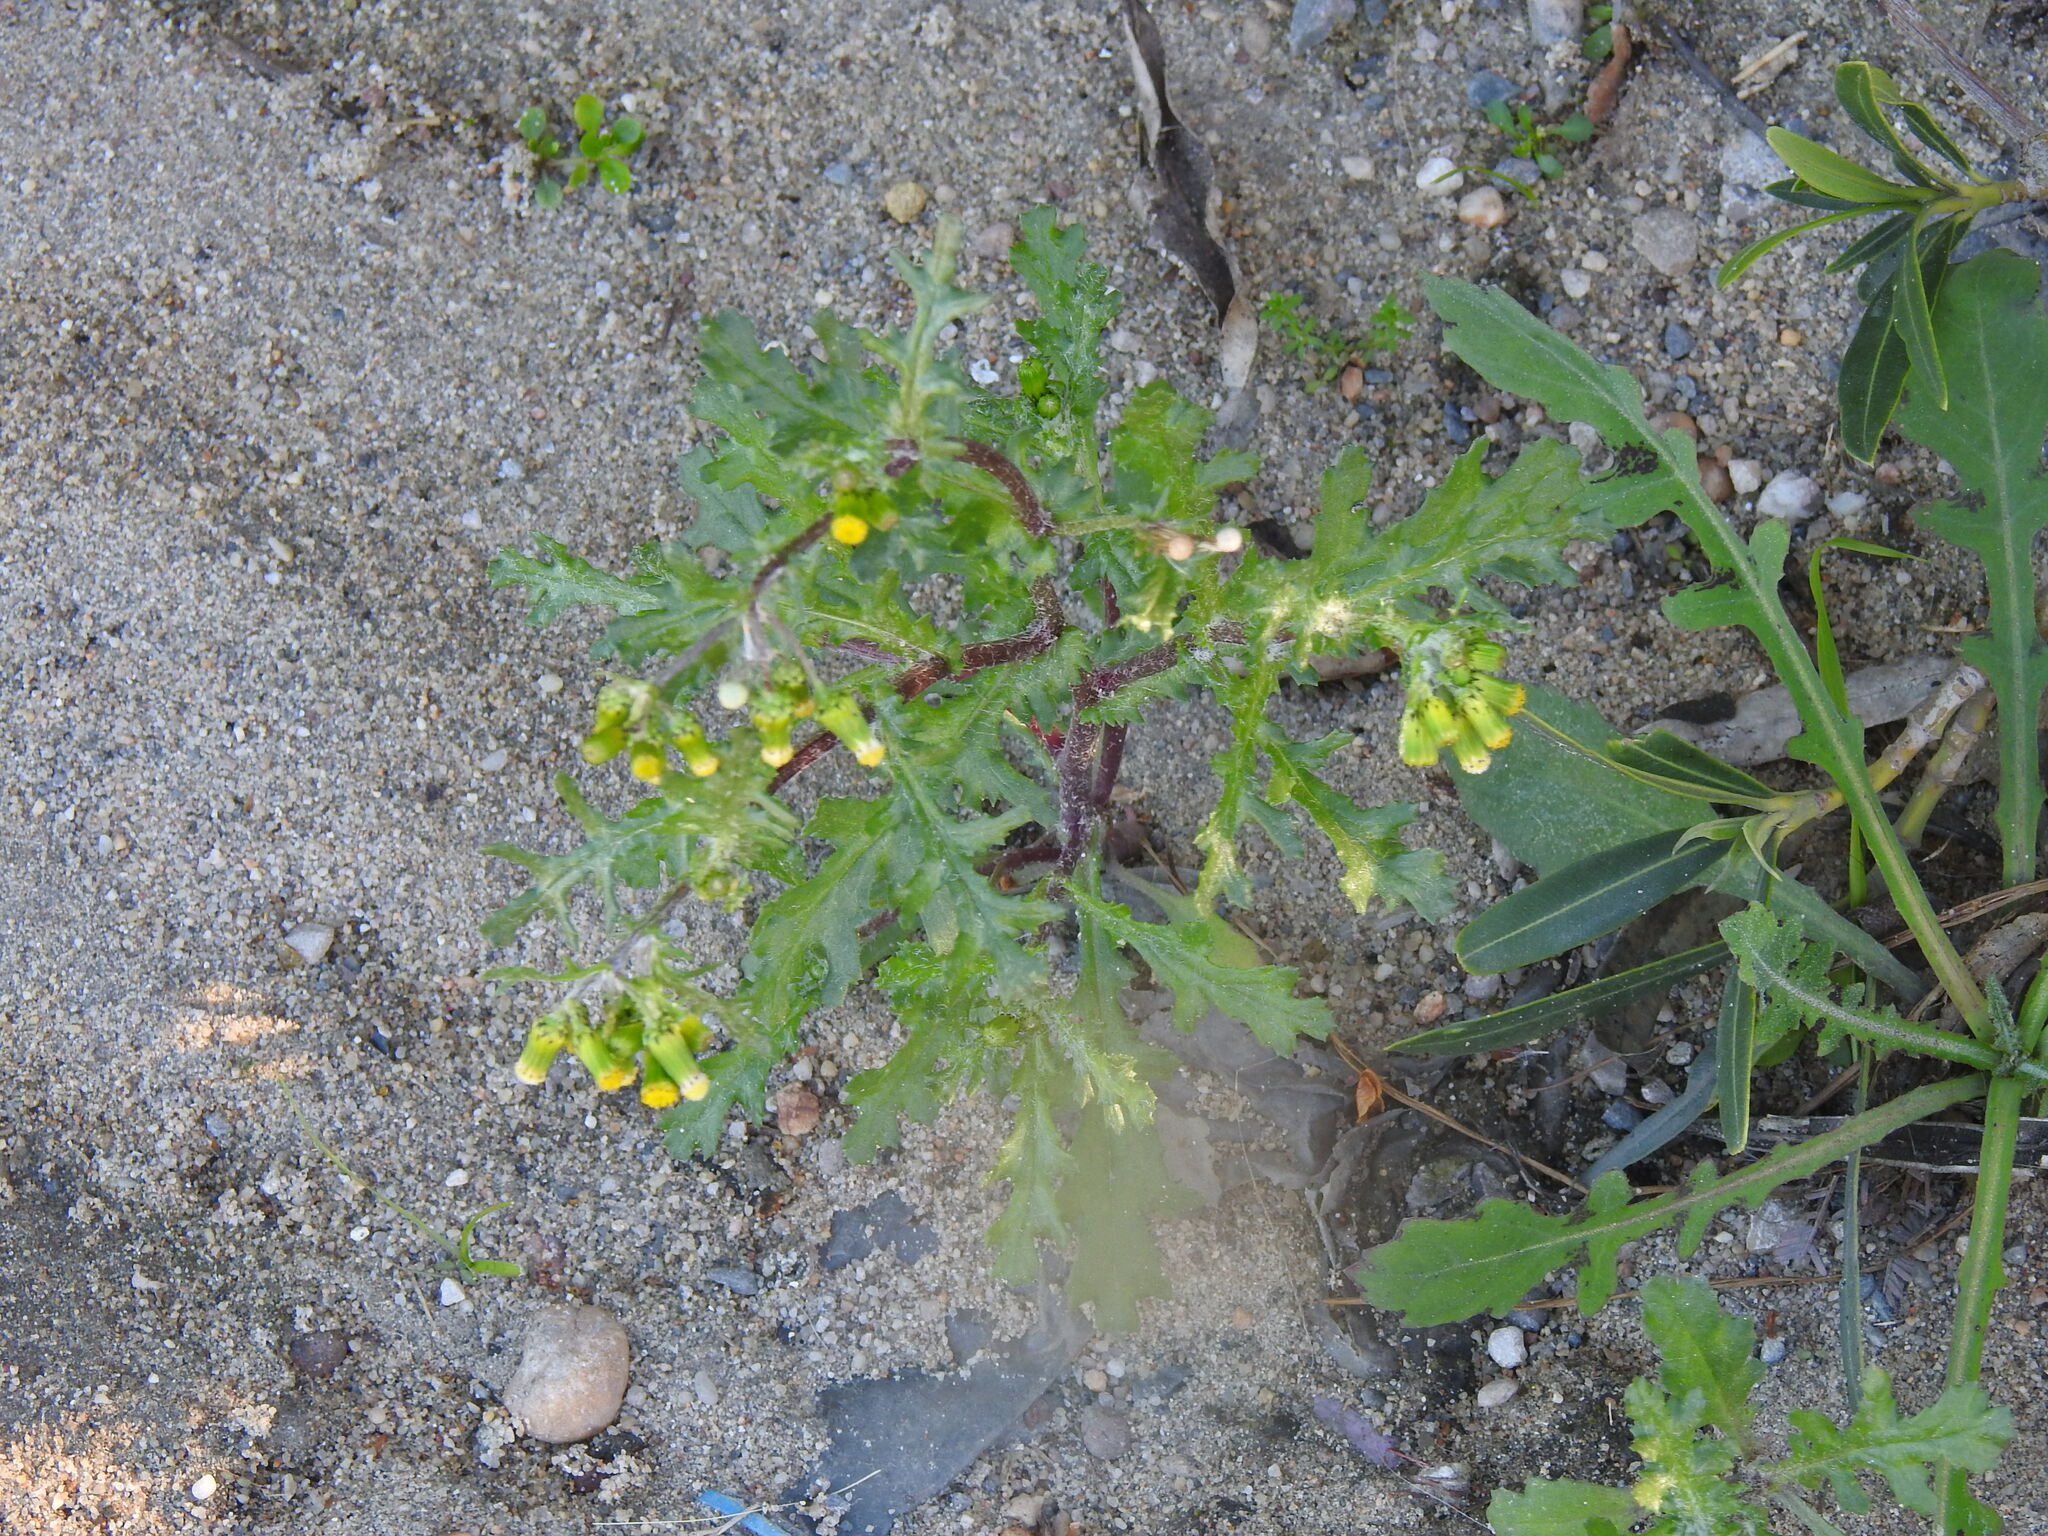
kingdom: Plantae
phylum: Tracheophyta
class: Magnoliopsida
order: Asterales
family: Asteraceae
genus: Senecio
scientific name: Senecio vulgaris
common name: Old-man-in-the-spring
